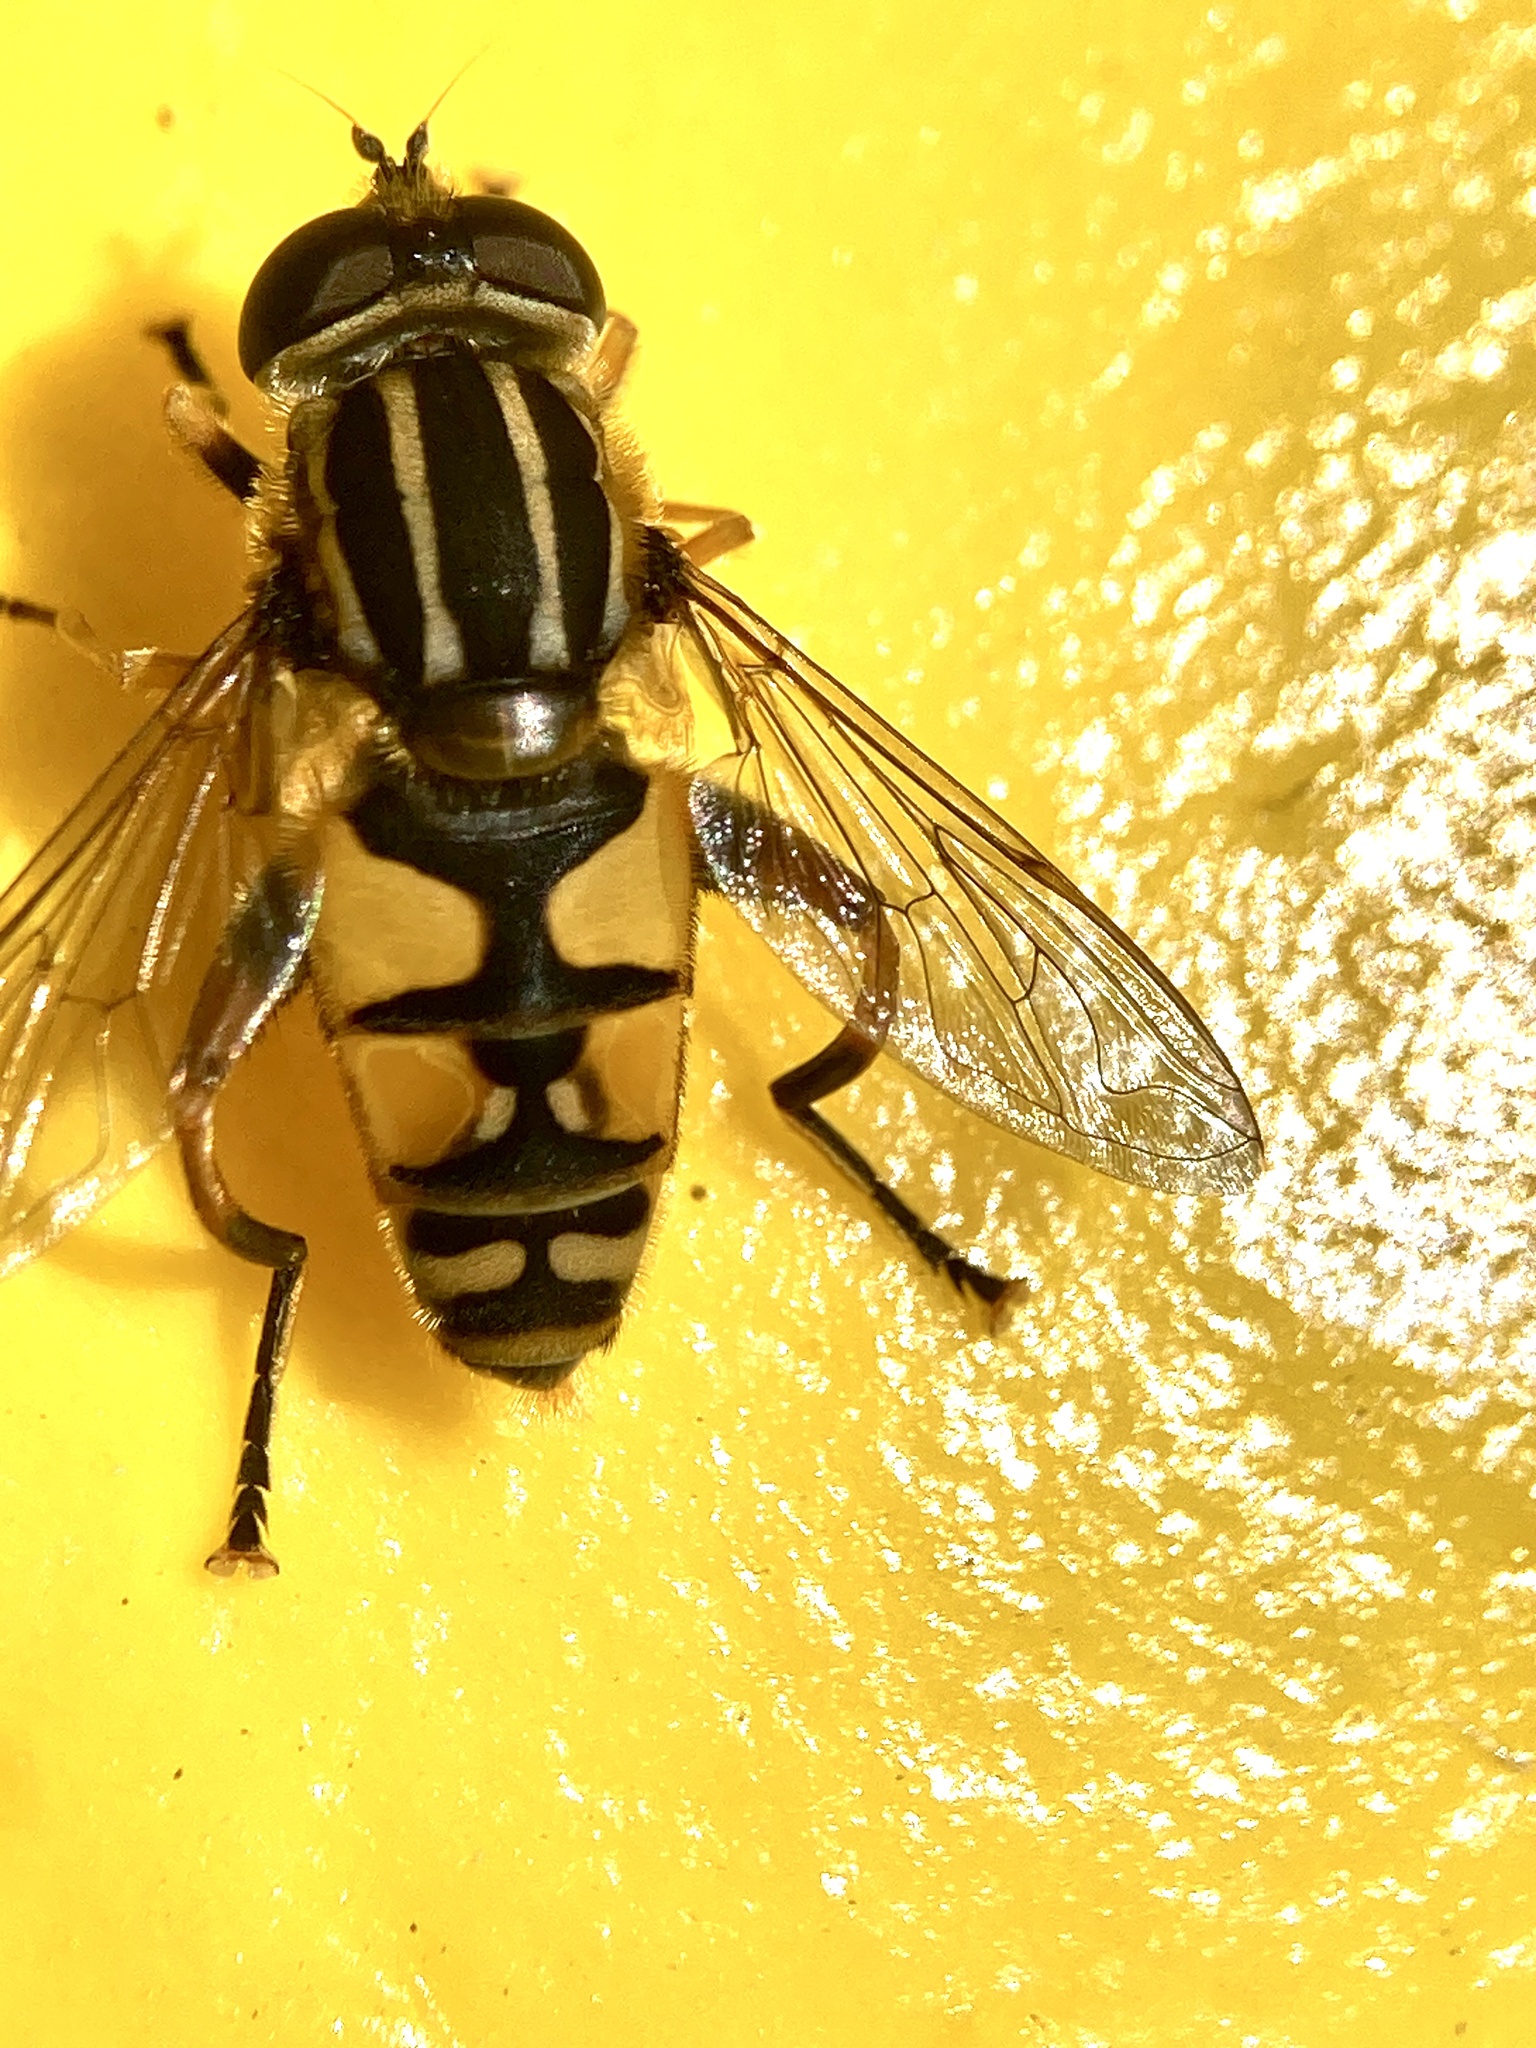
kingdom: Animalia
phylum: Arthropoda
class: Insecta
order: Diptera
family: Syrphidae
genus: Helophilus
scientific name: Helophilus pendulus
